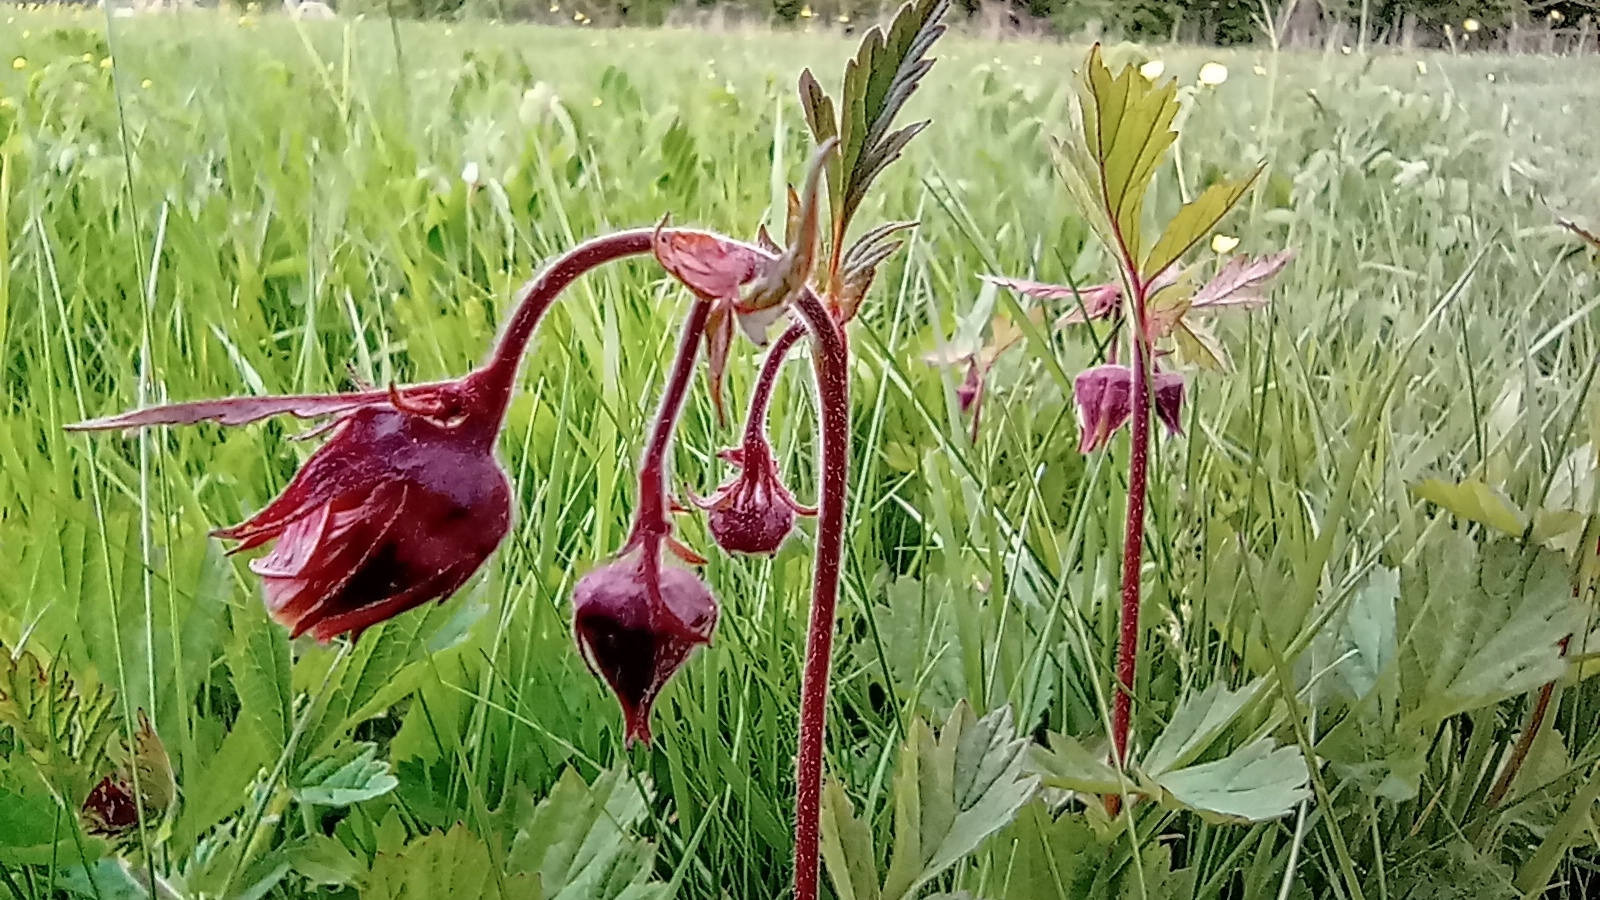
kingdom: Plantae
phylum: Tracheophyta
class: Magnoliopsida
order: Rosales
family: Rosaceae
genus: Geum
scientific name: Geum rivale
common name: Water avens
